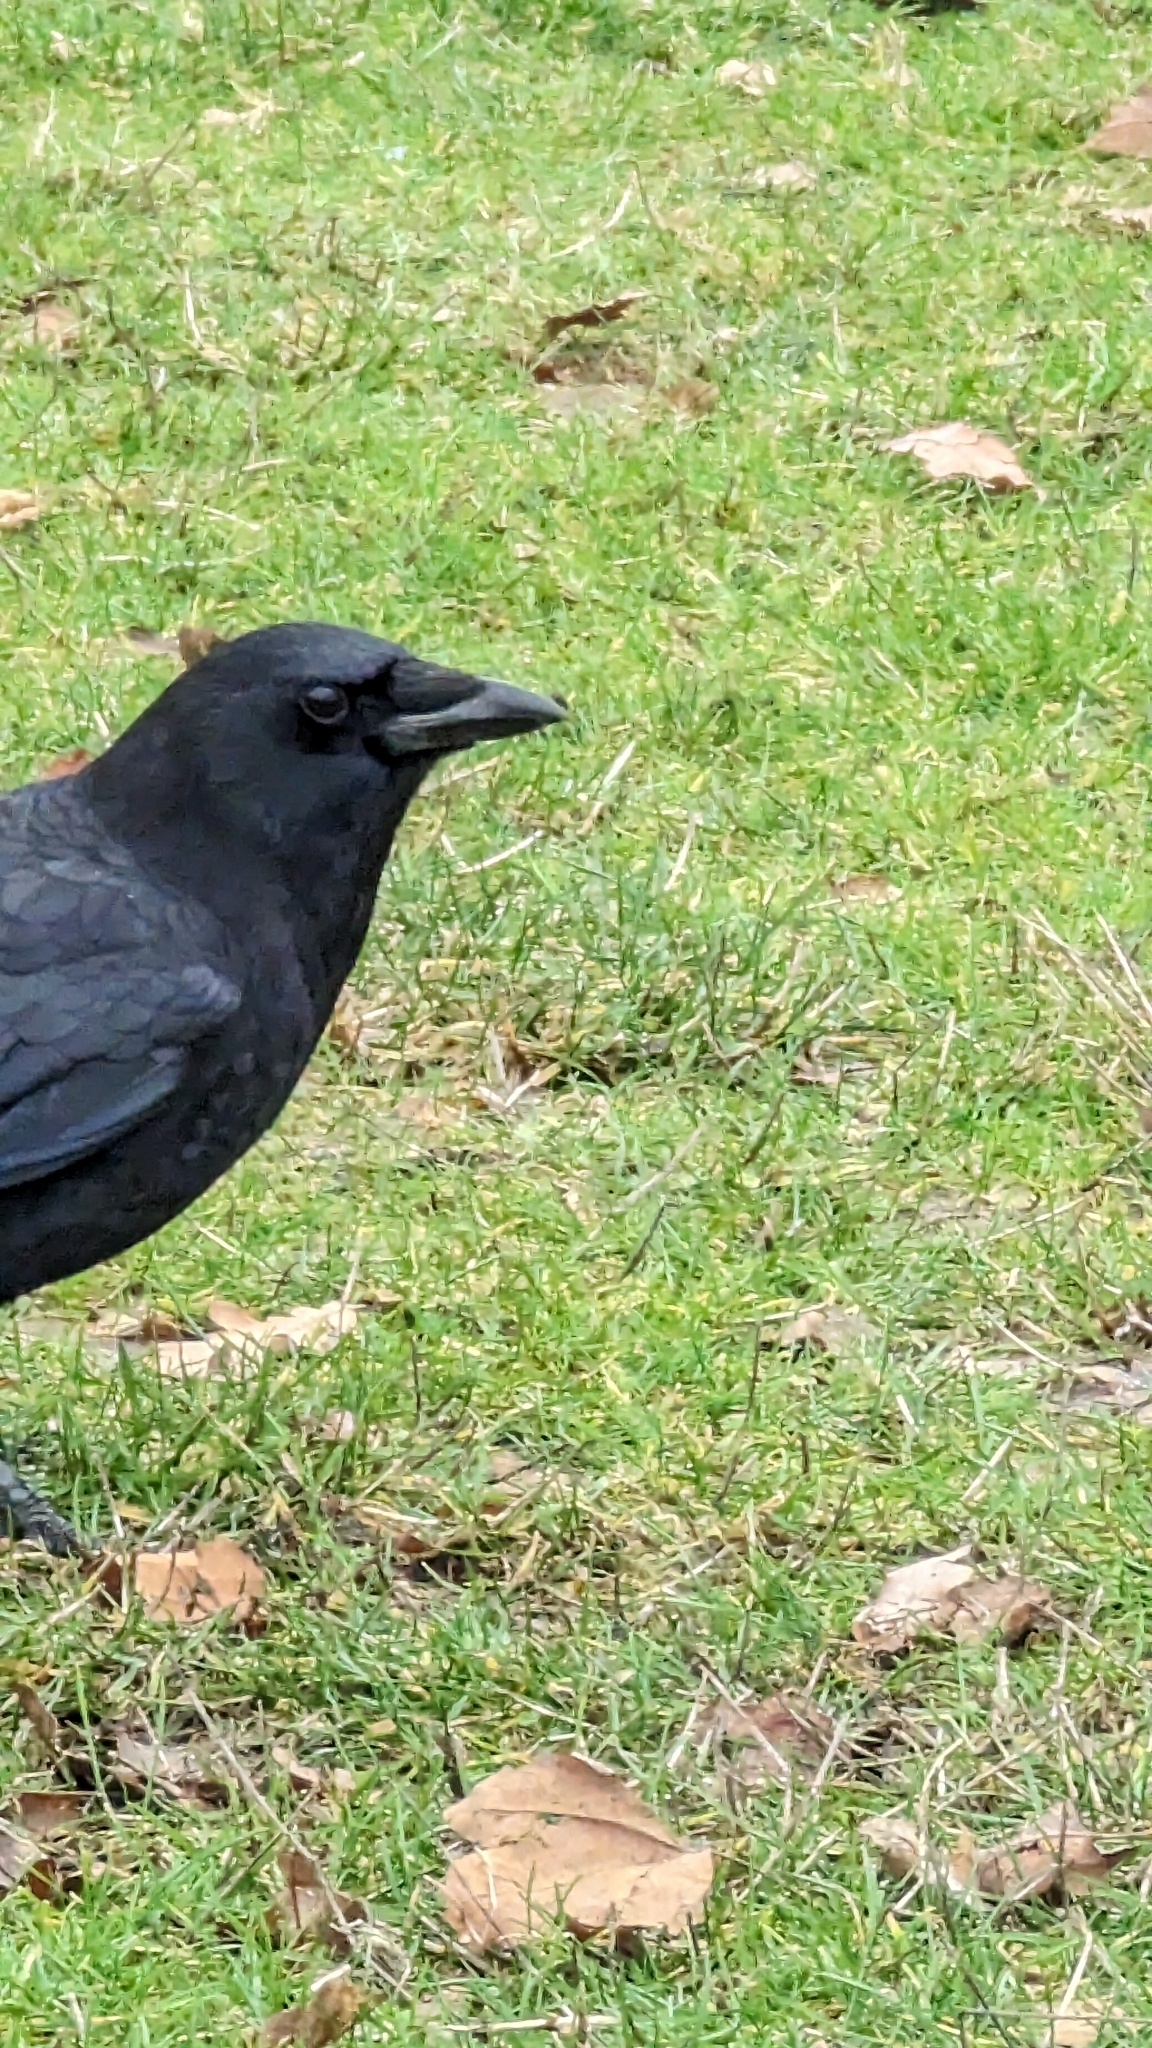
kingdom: Animalia
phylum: Chordata
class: Aves
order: Passeriformes
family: Corvidae
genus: Corvus
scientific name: Corvus brachyrhynchos
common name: American crow
